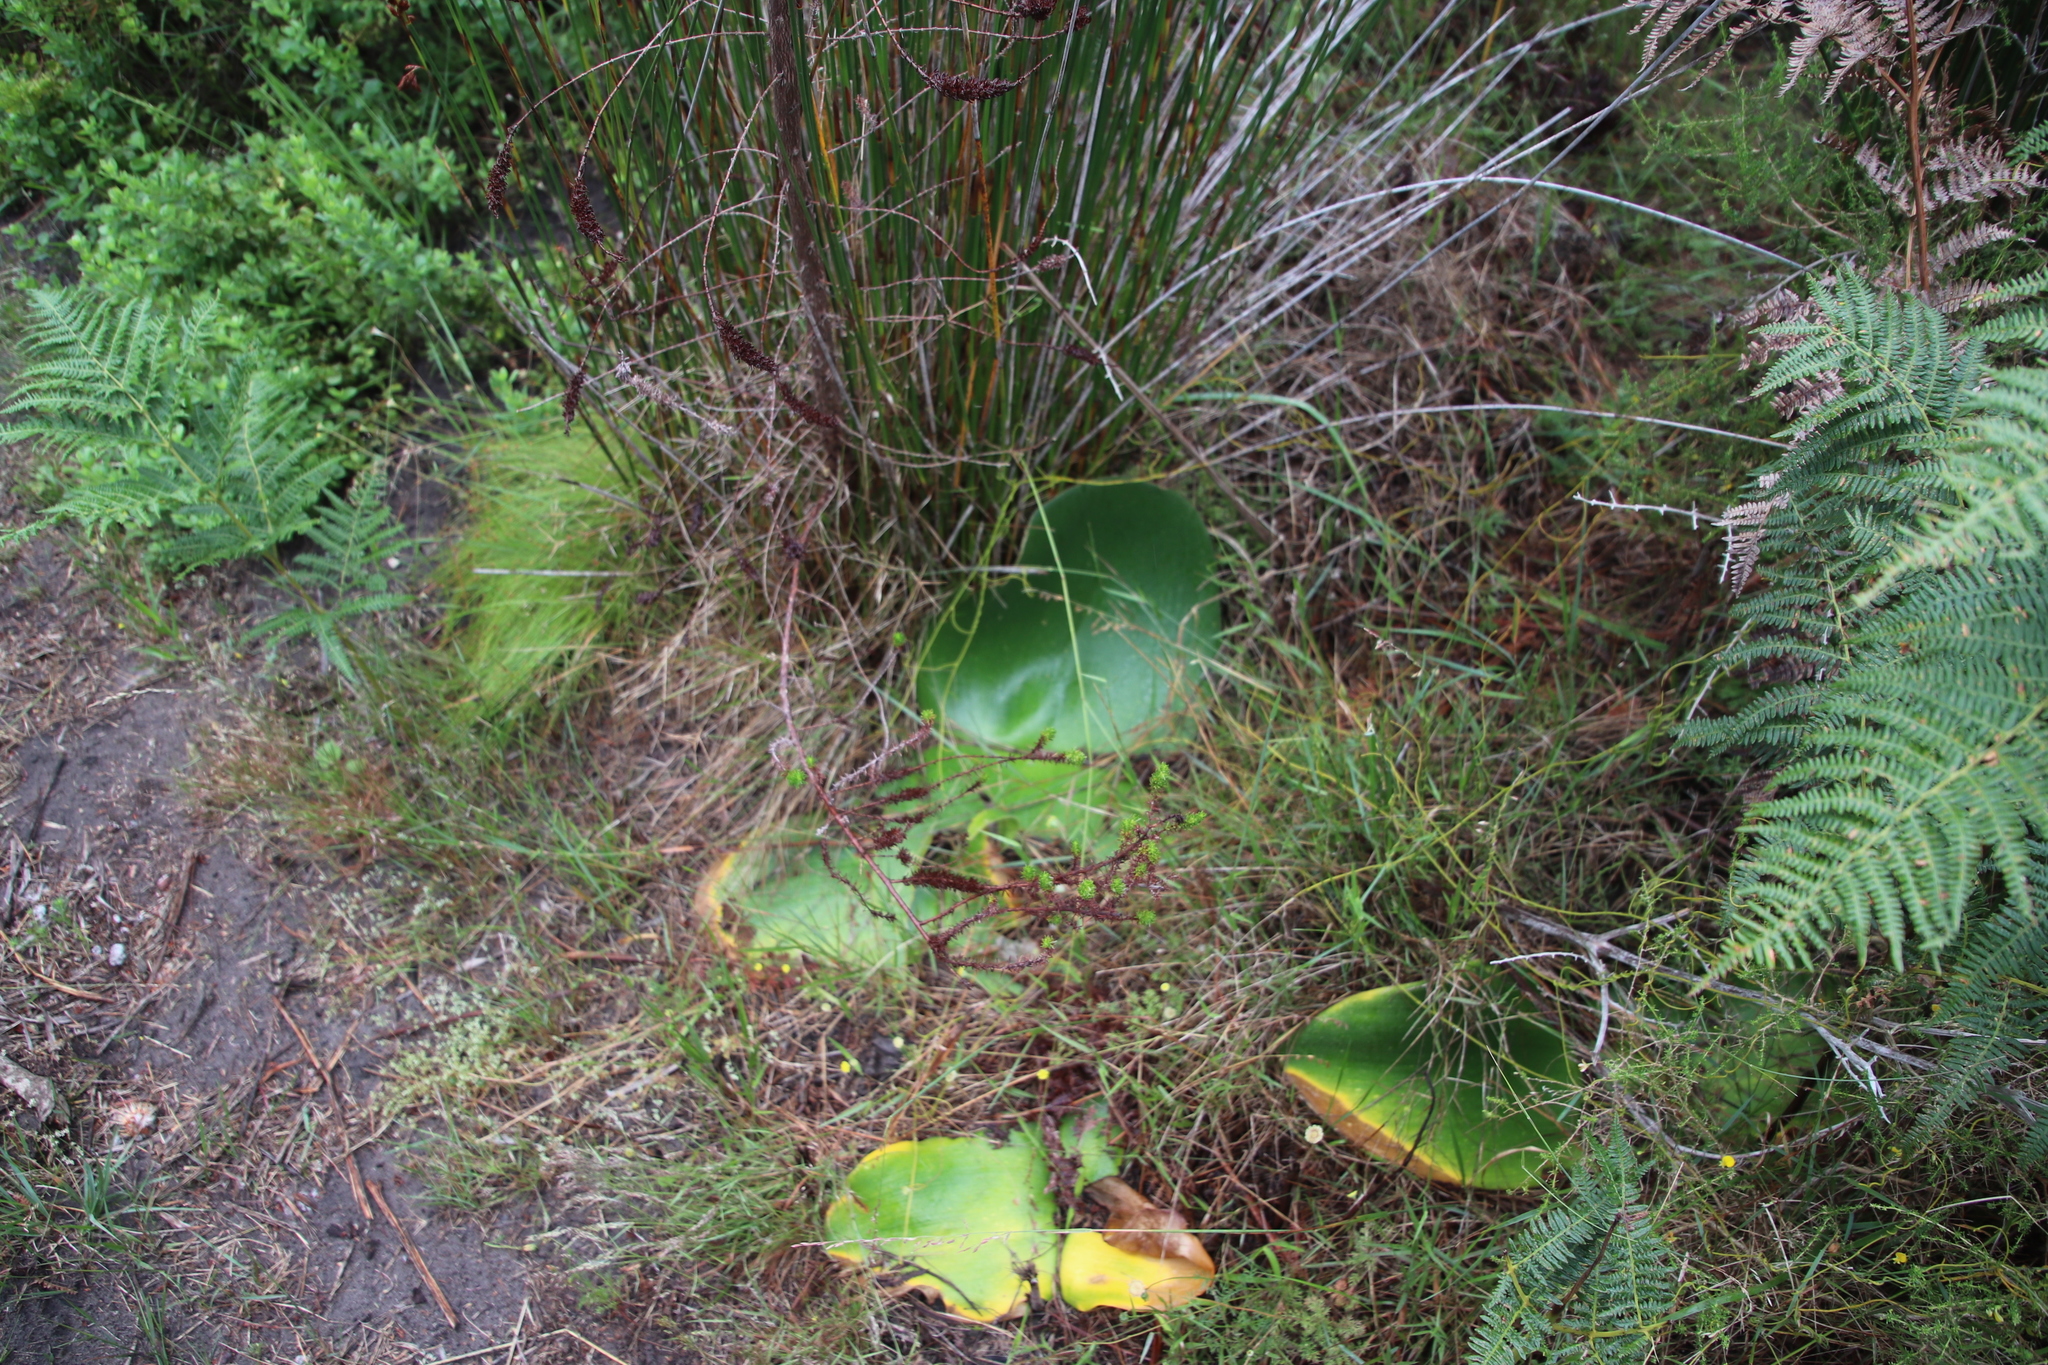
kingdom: Plantae
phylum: Tracheophyta
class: Liliopsida
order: Asparagales
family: Amaryllidaceae
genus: Haemanthus
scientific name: Haemanthus sanguineus
